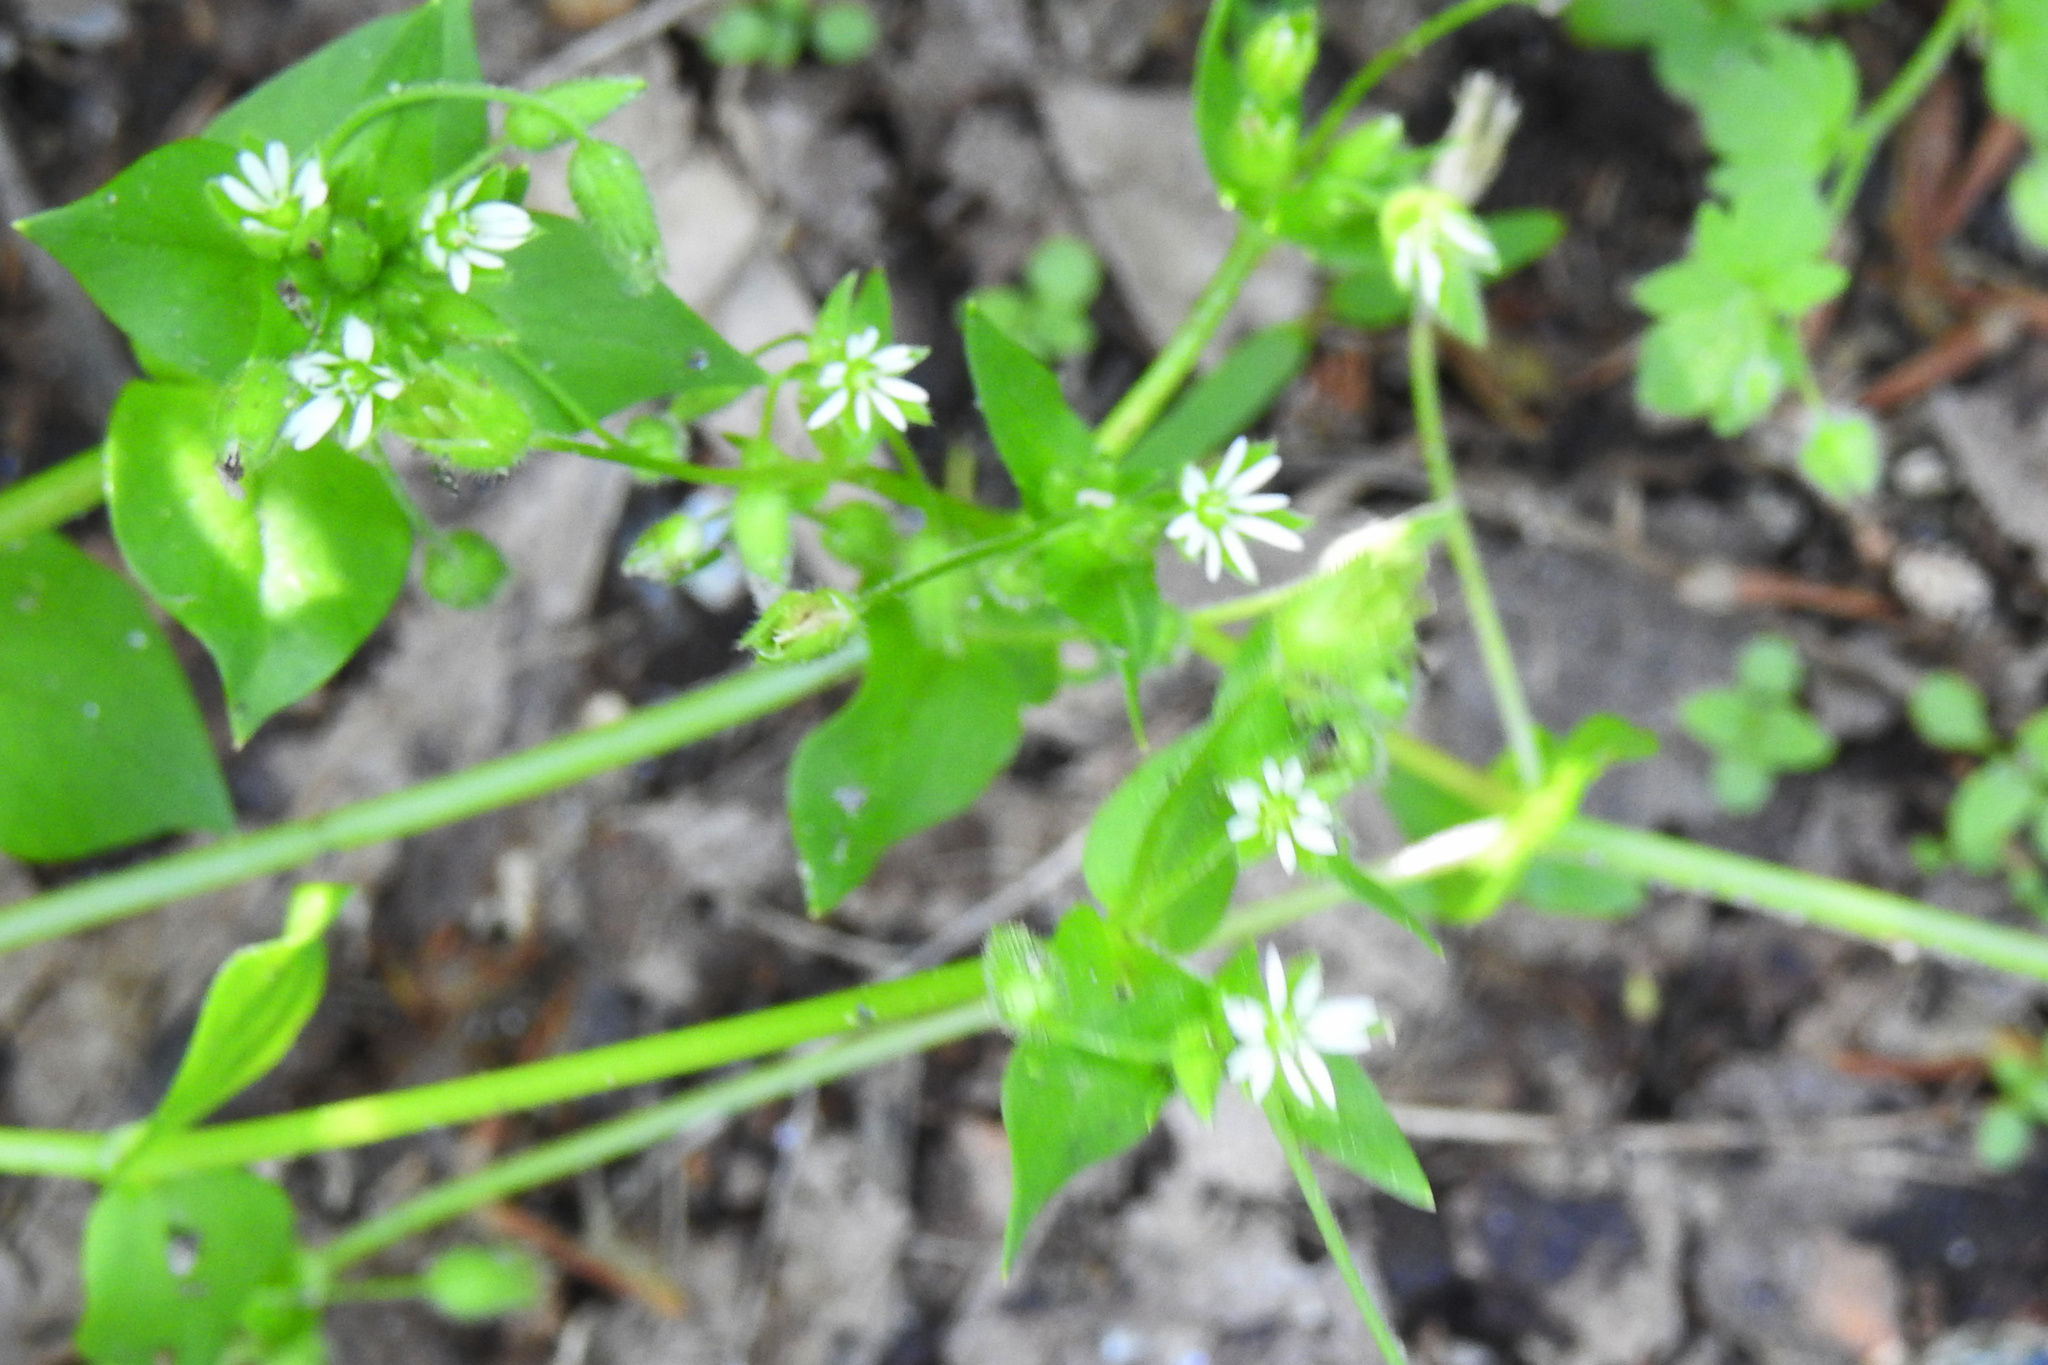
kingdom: Plantae
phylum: Tracheophyta
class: Magnoliopsida
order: Caryophyllales
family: Caryophyllaceae
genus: Stellaria
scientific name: Stellaria media
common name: Common chickweed
